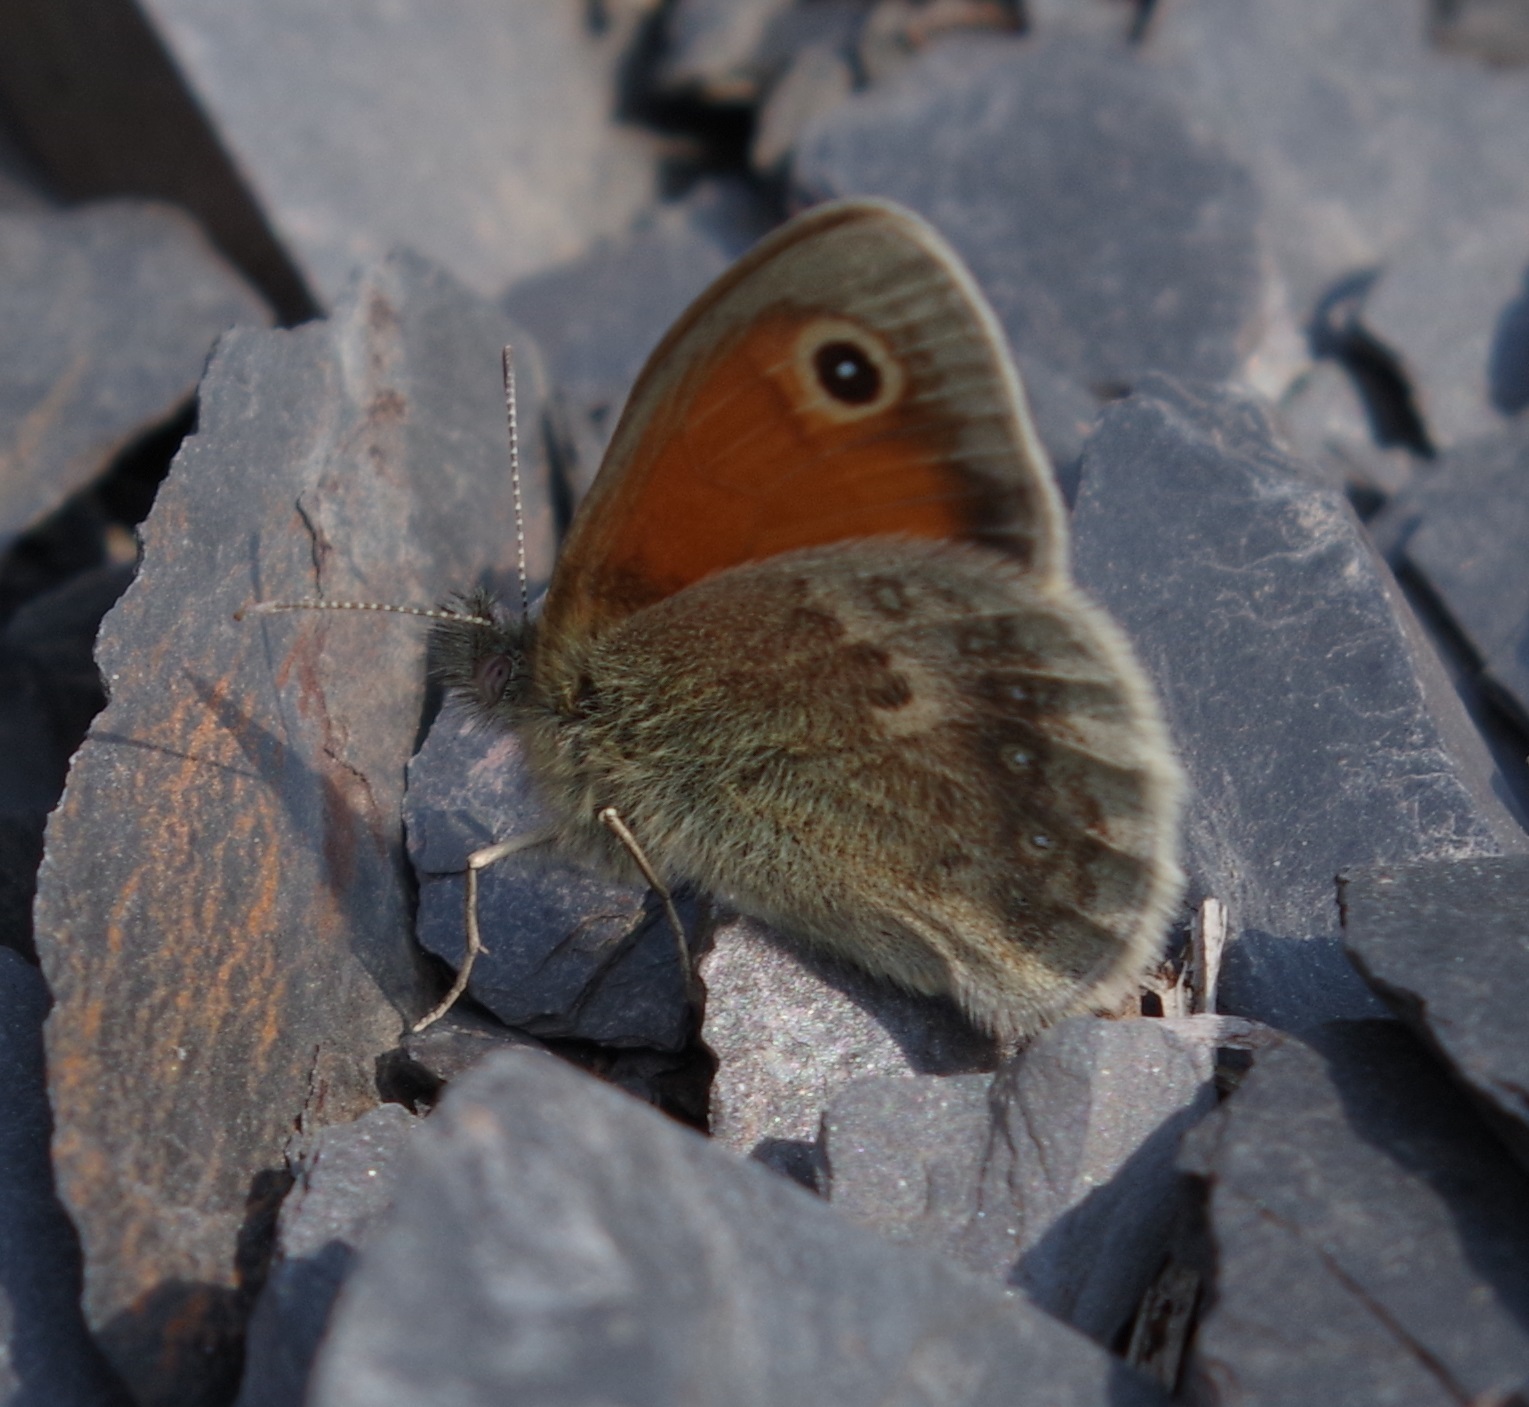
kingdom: Animalia
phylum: Arthropoda
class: Insecta
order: Lepidoptera
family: Nymphalidae
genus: Coenonympha
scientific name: Coenonympha pamphilus
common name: Small heath
